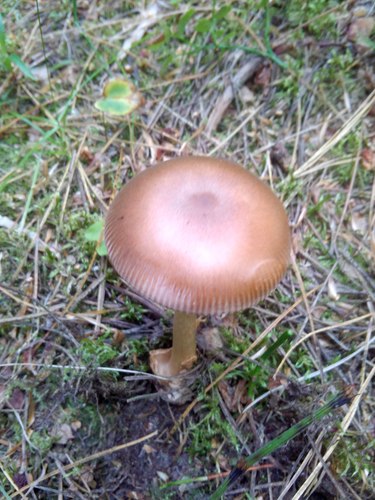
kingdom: Fungi
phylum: Basidiomycota
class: Agaricomycetes
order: Agaricales
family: Amanitaceae
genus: Amanita
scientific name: Amanita fulva
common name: Tawny grisette
